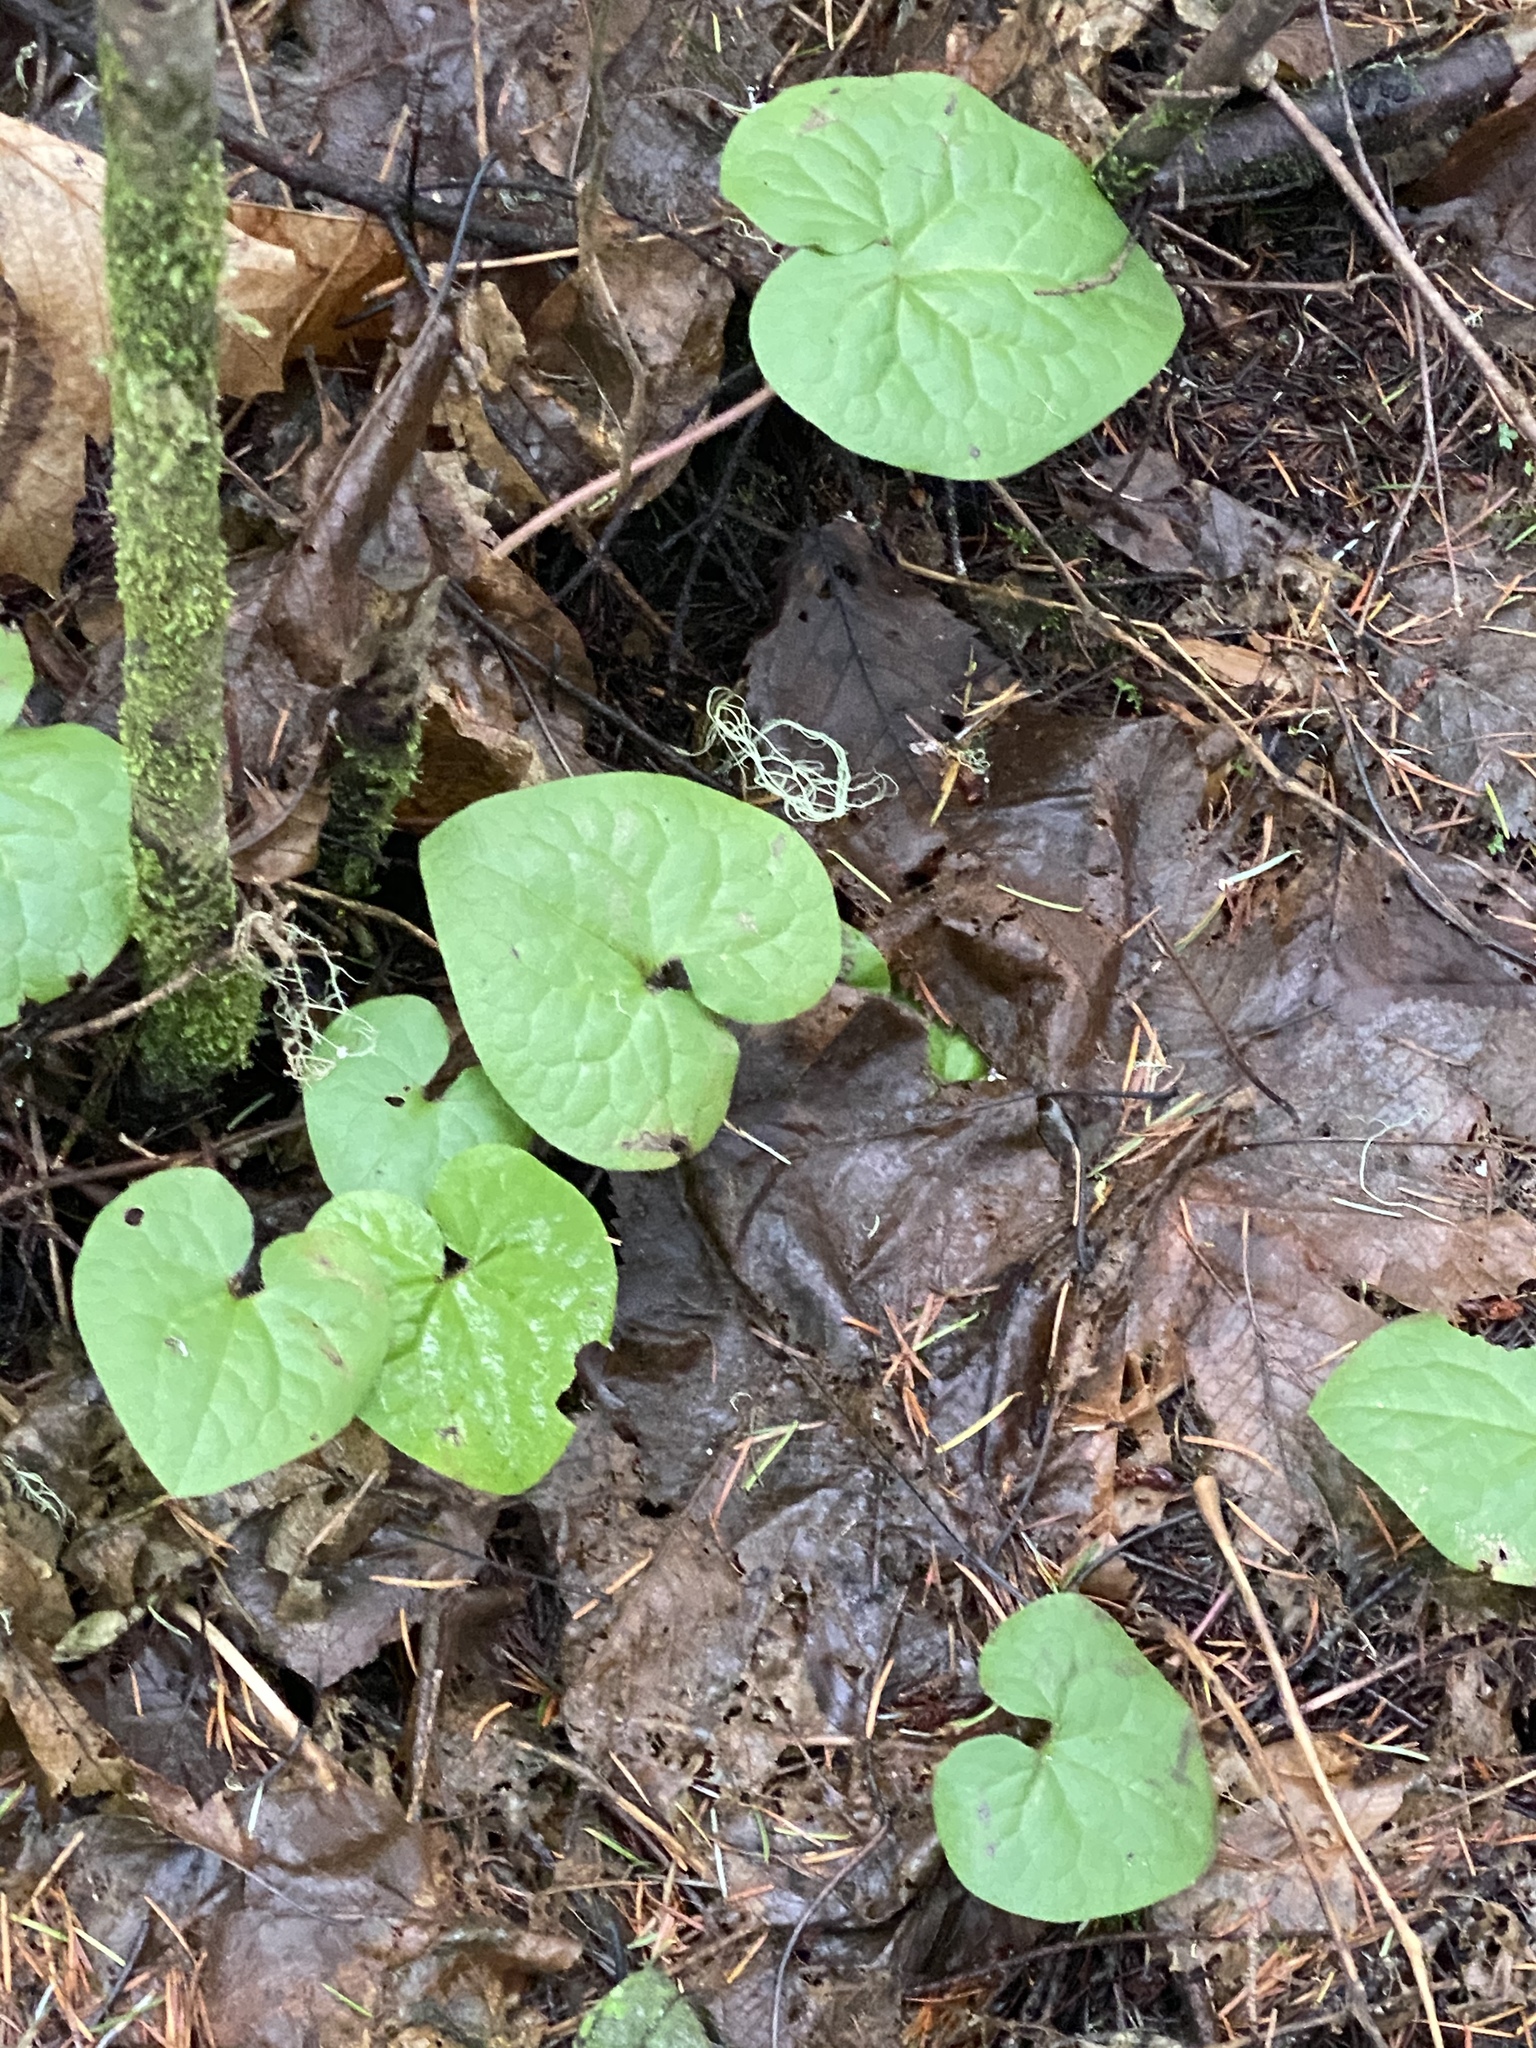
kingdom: Plantae
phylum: Tracheophyta
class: Magnoliopsida
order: Piperales
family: Aristolochiaceae
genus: Asarum
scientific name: Asarum caudatum
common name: Wild ginger
